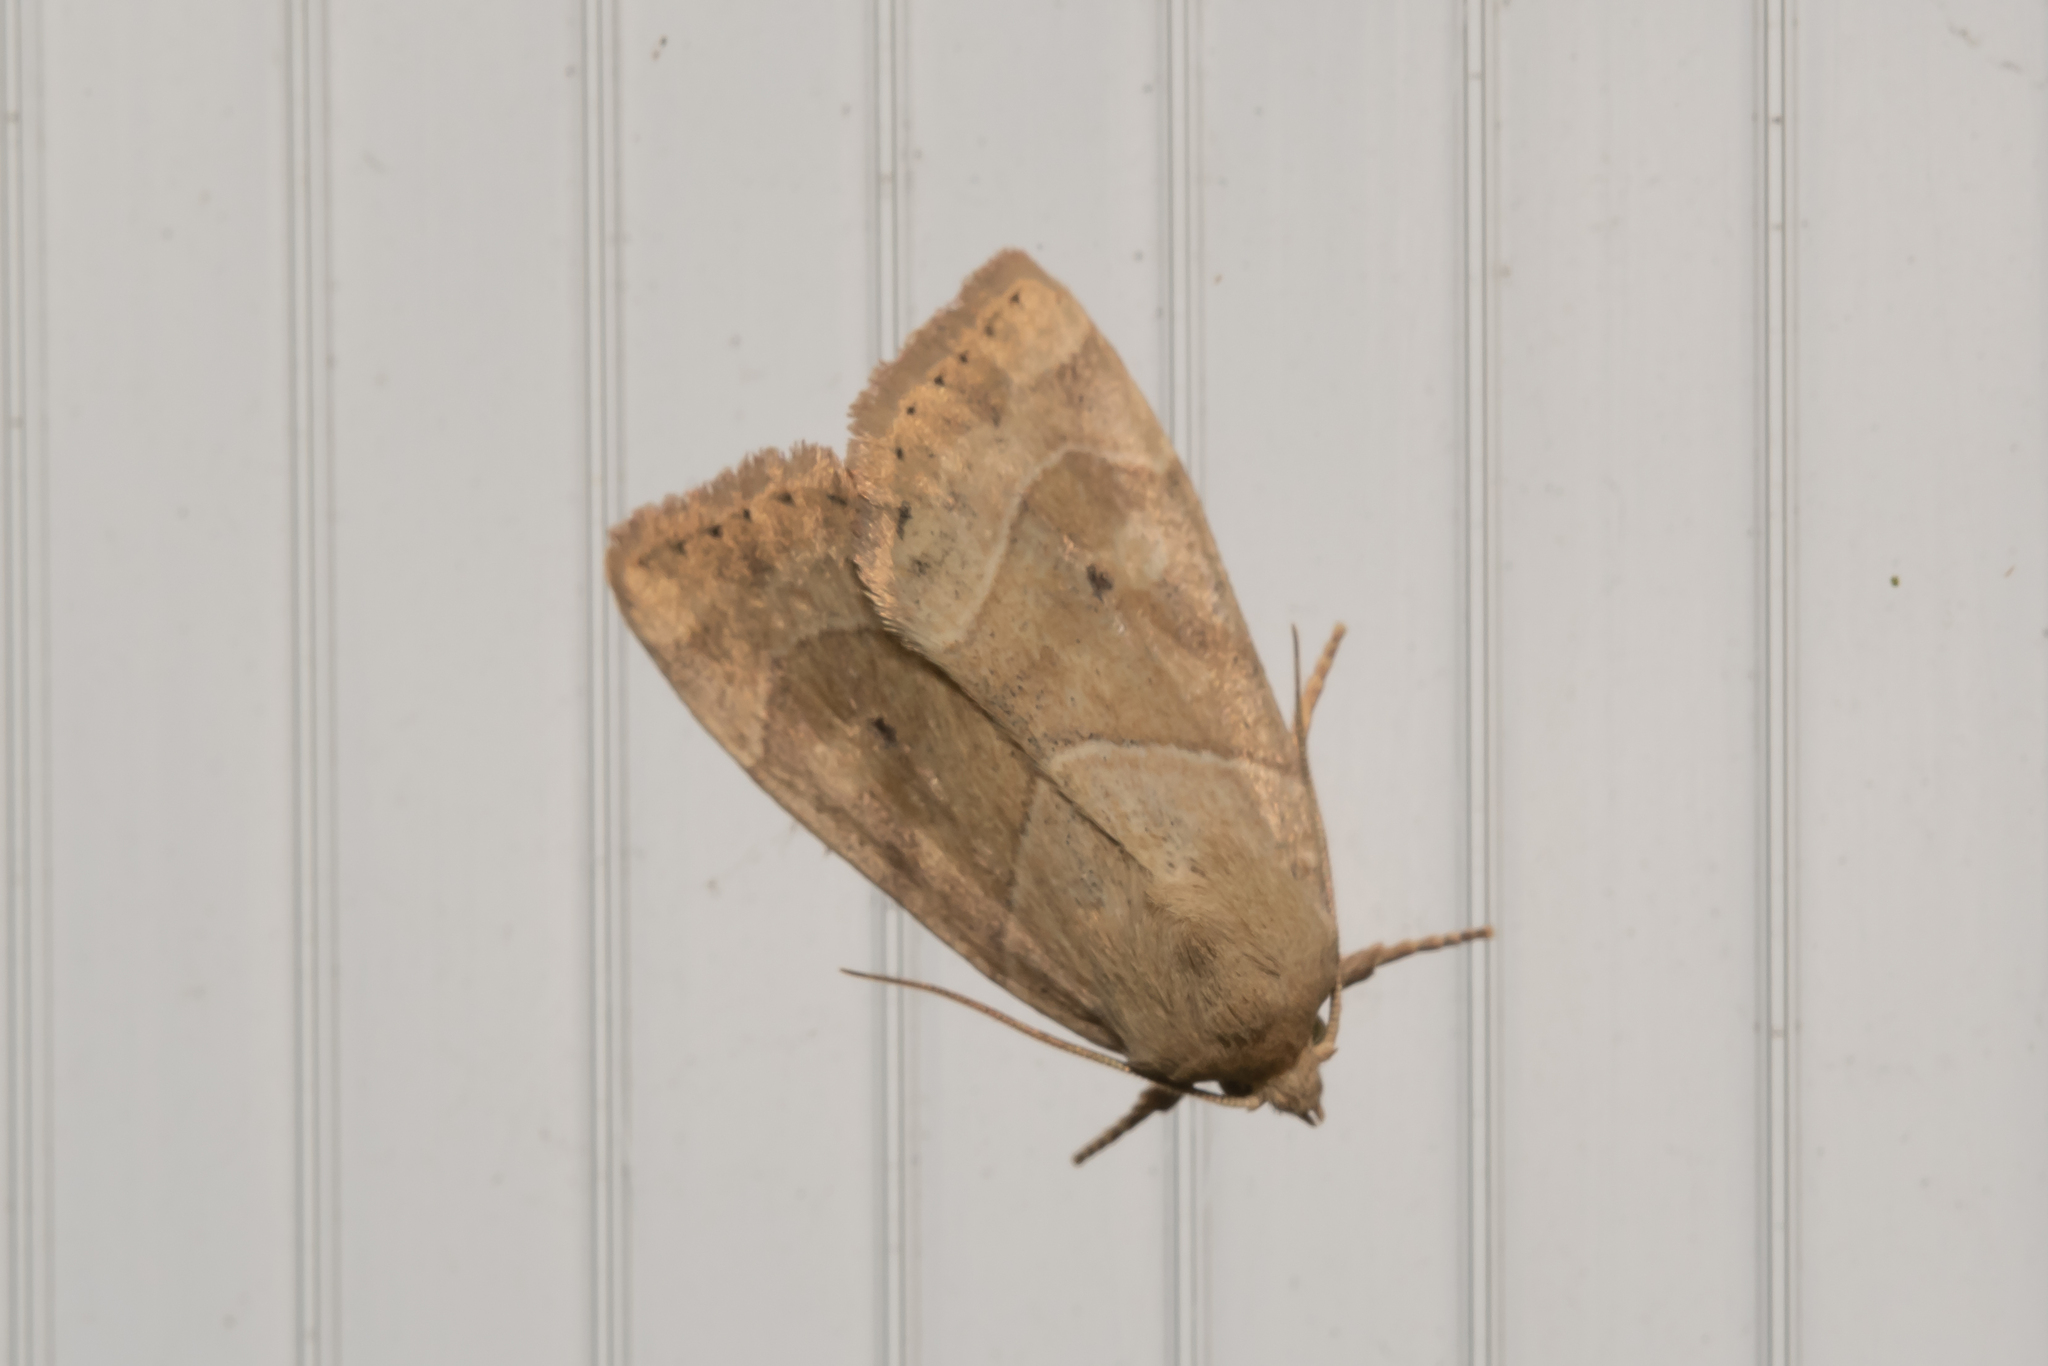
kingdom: Animalia
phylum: Arthropoda
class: Insecta
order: Lepidoptera
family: Noctuidae
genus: Cosmia
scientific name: Cosmia trapezina
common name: Dun-bar
